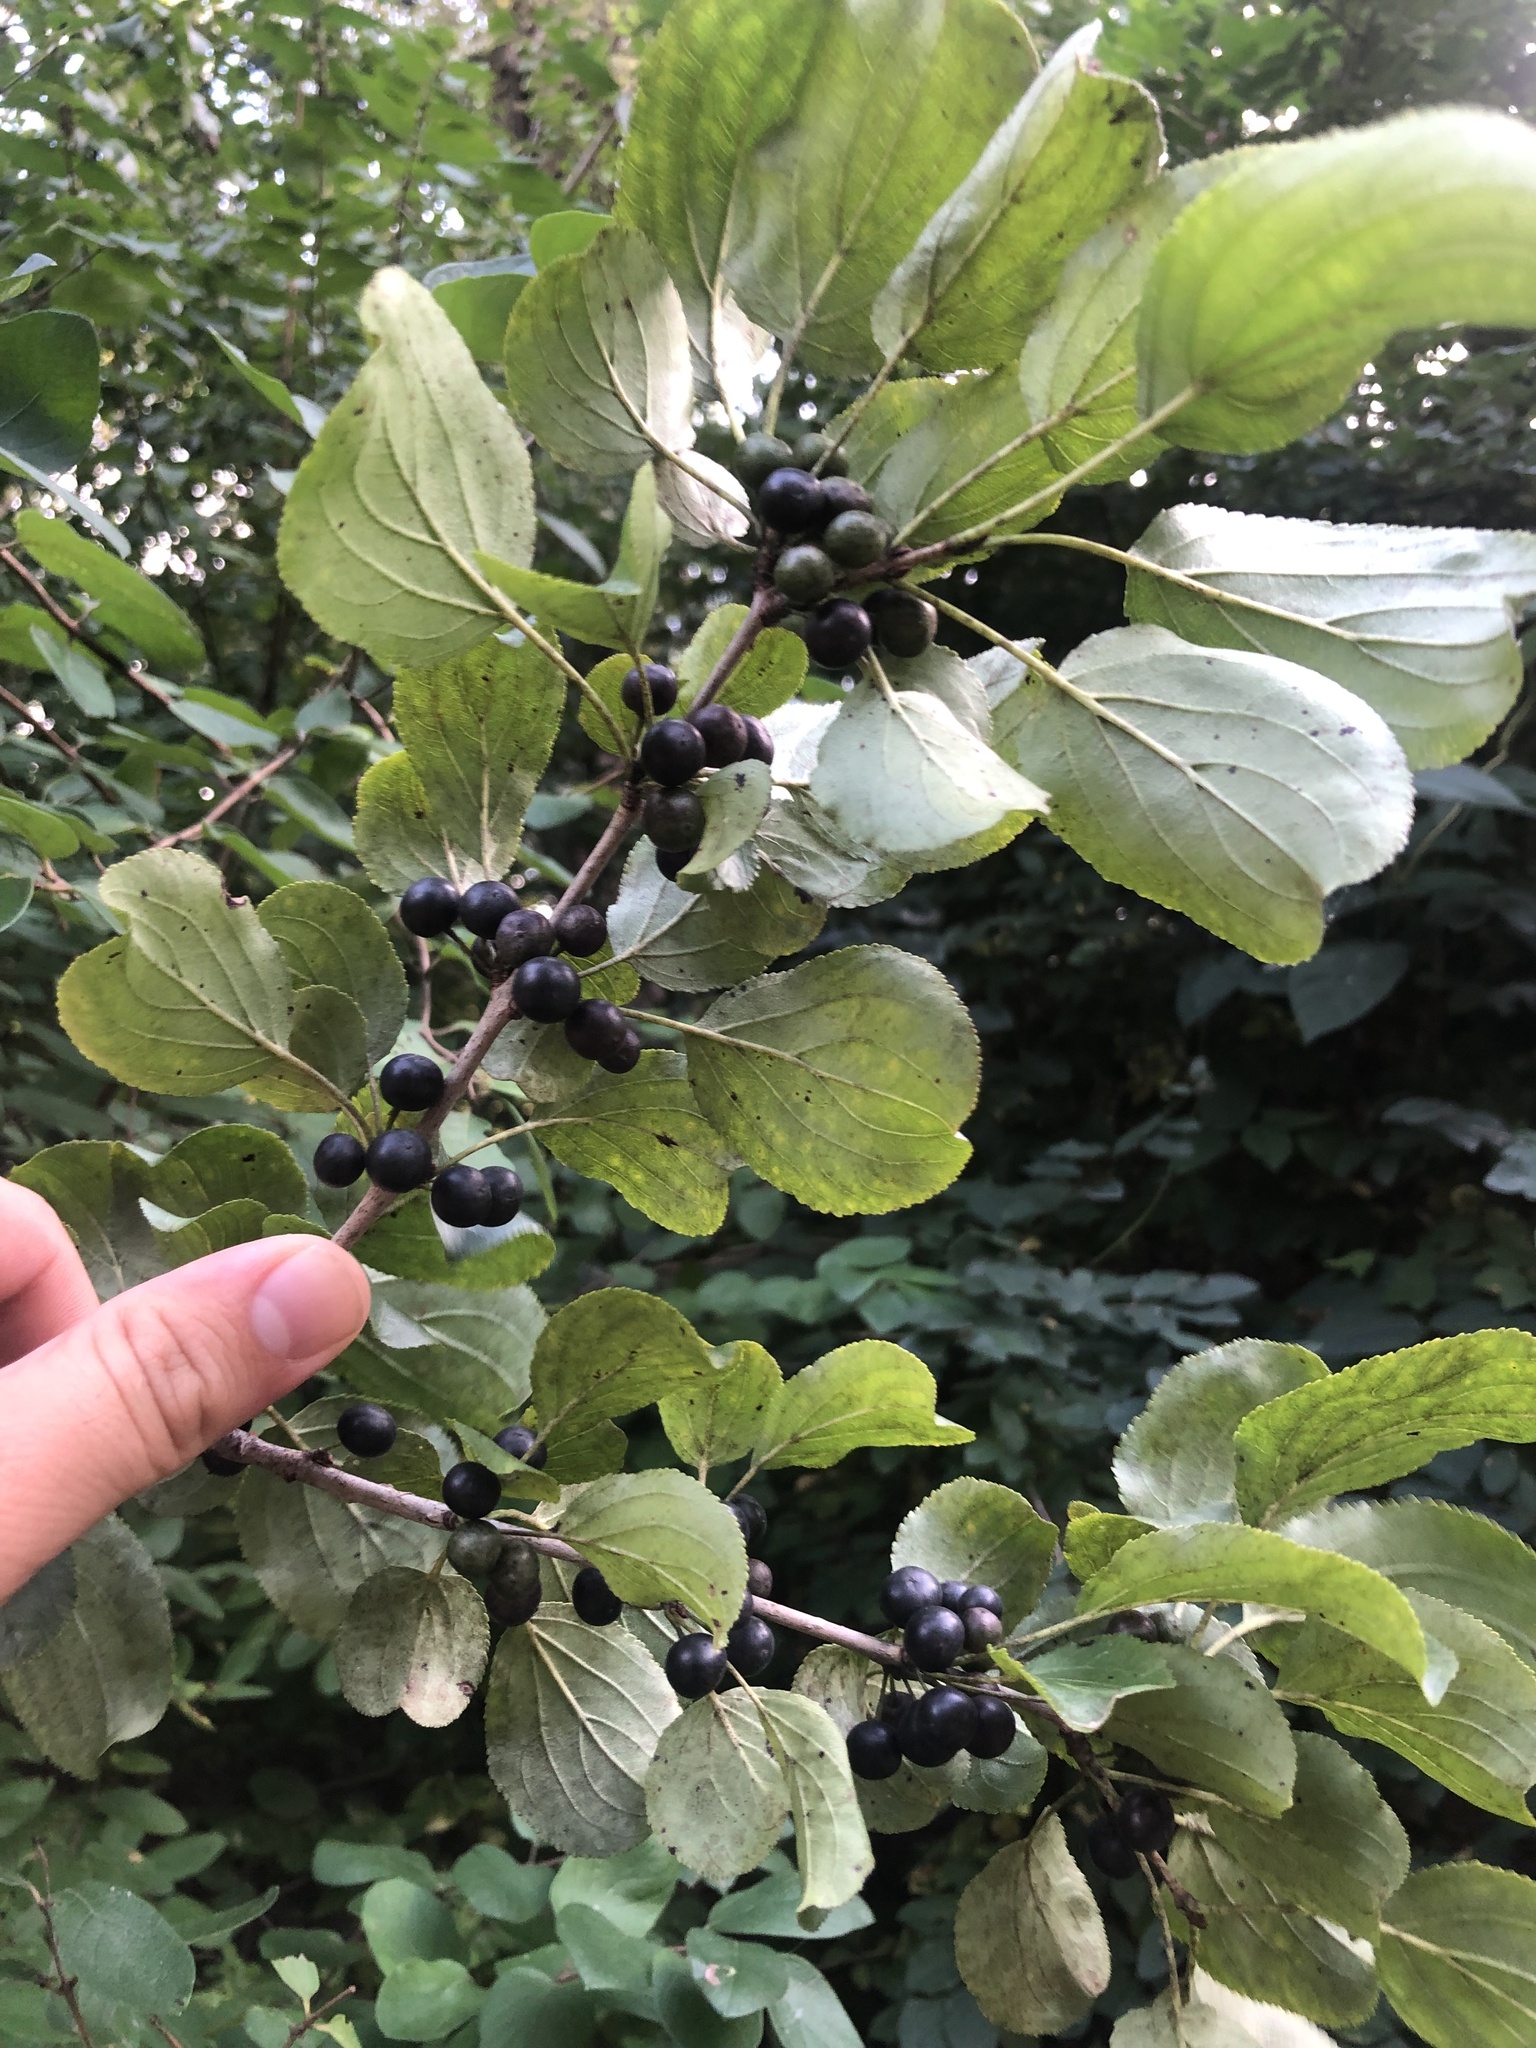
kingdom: Plantae
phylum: Tracheophyta
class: Magnoliopsida
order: Rosales
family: Rhamnaceae
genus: Rhamnus
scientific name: Rhamnus cathartica
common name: Common buckthorn
